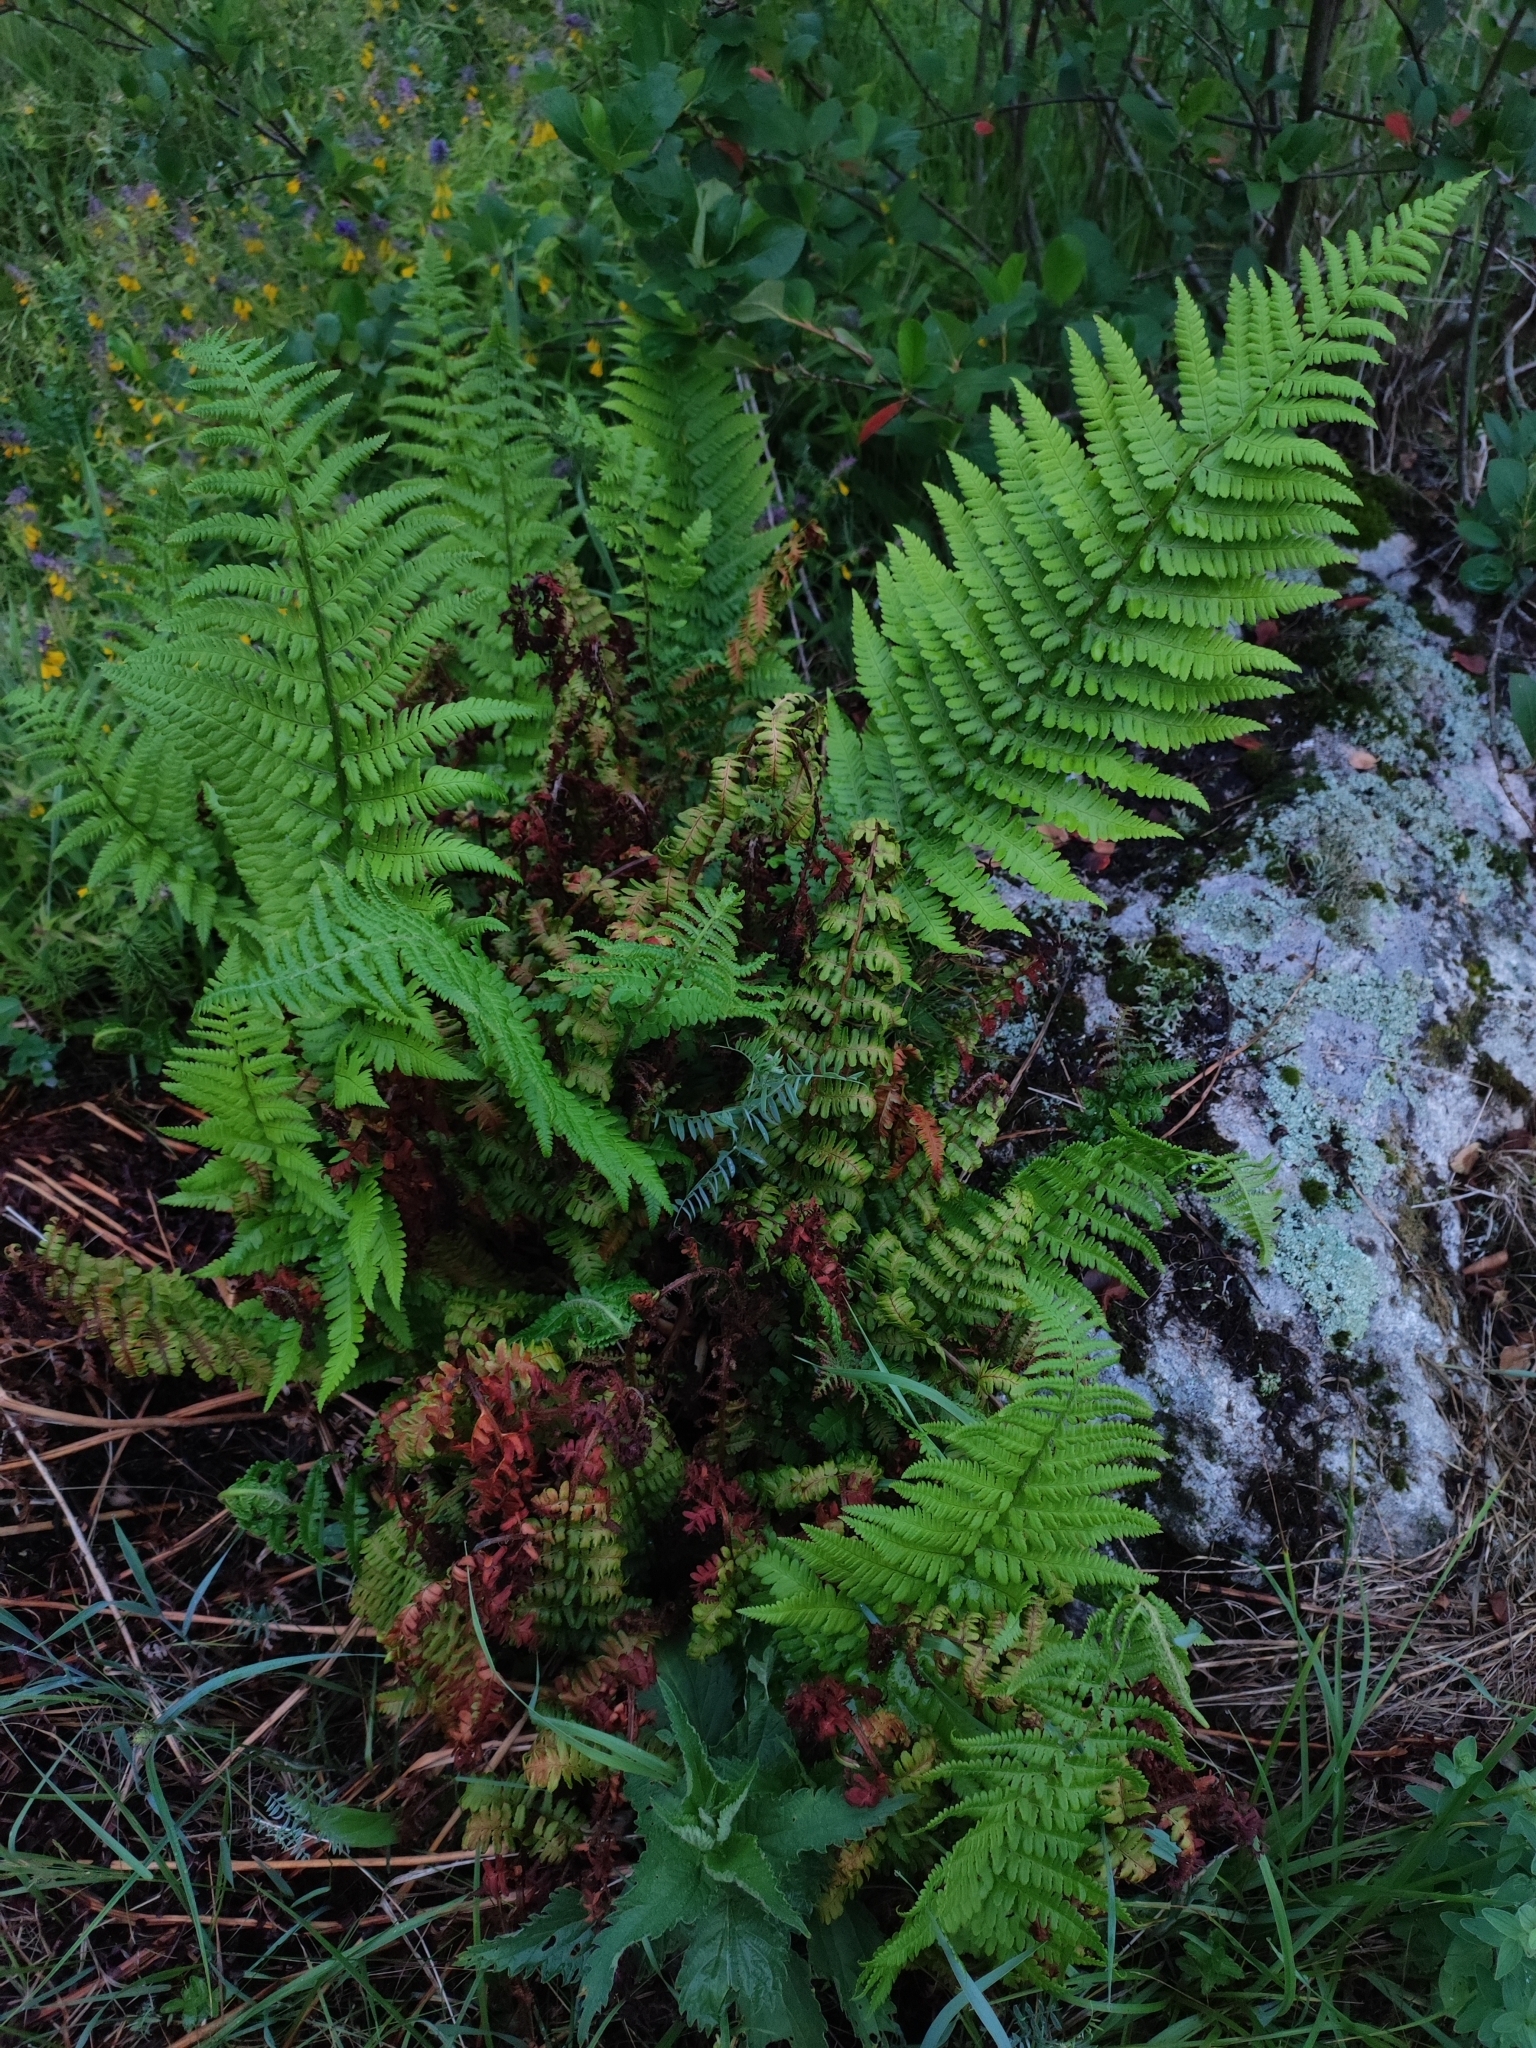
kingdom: Plantae
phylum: Tracheophyta
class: Polypodiopsida
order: Polypodiales
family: Dryopteridaceae
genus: Dryopteris
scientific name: Dryopteris filix-mas
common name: Male fern
